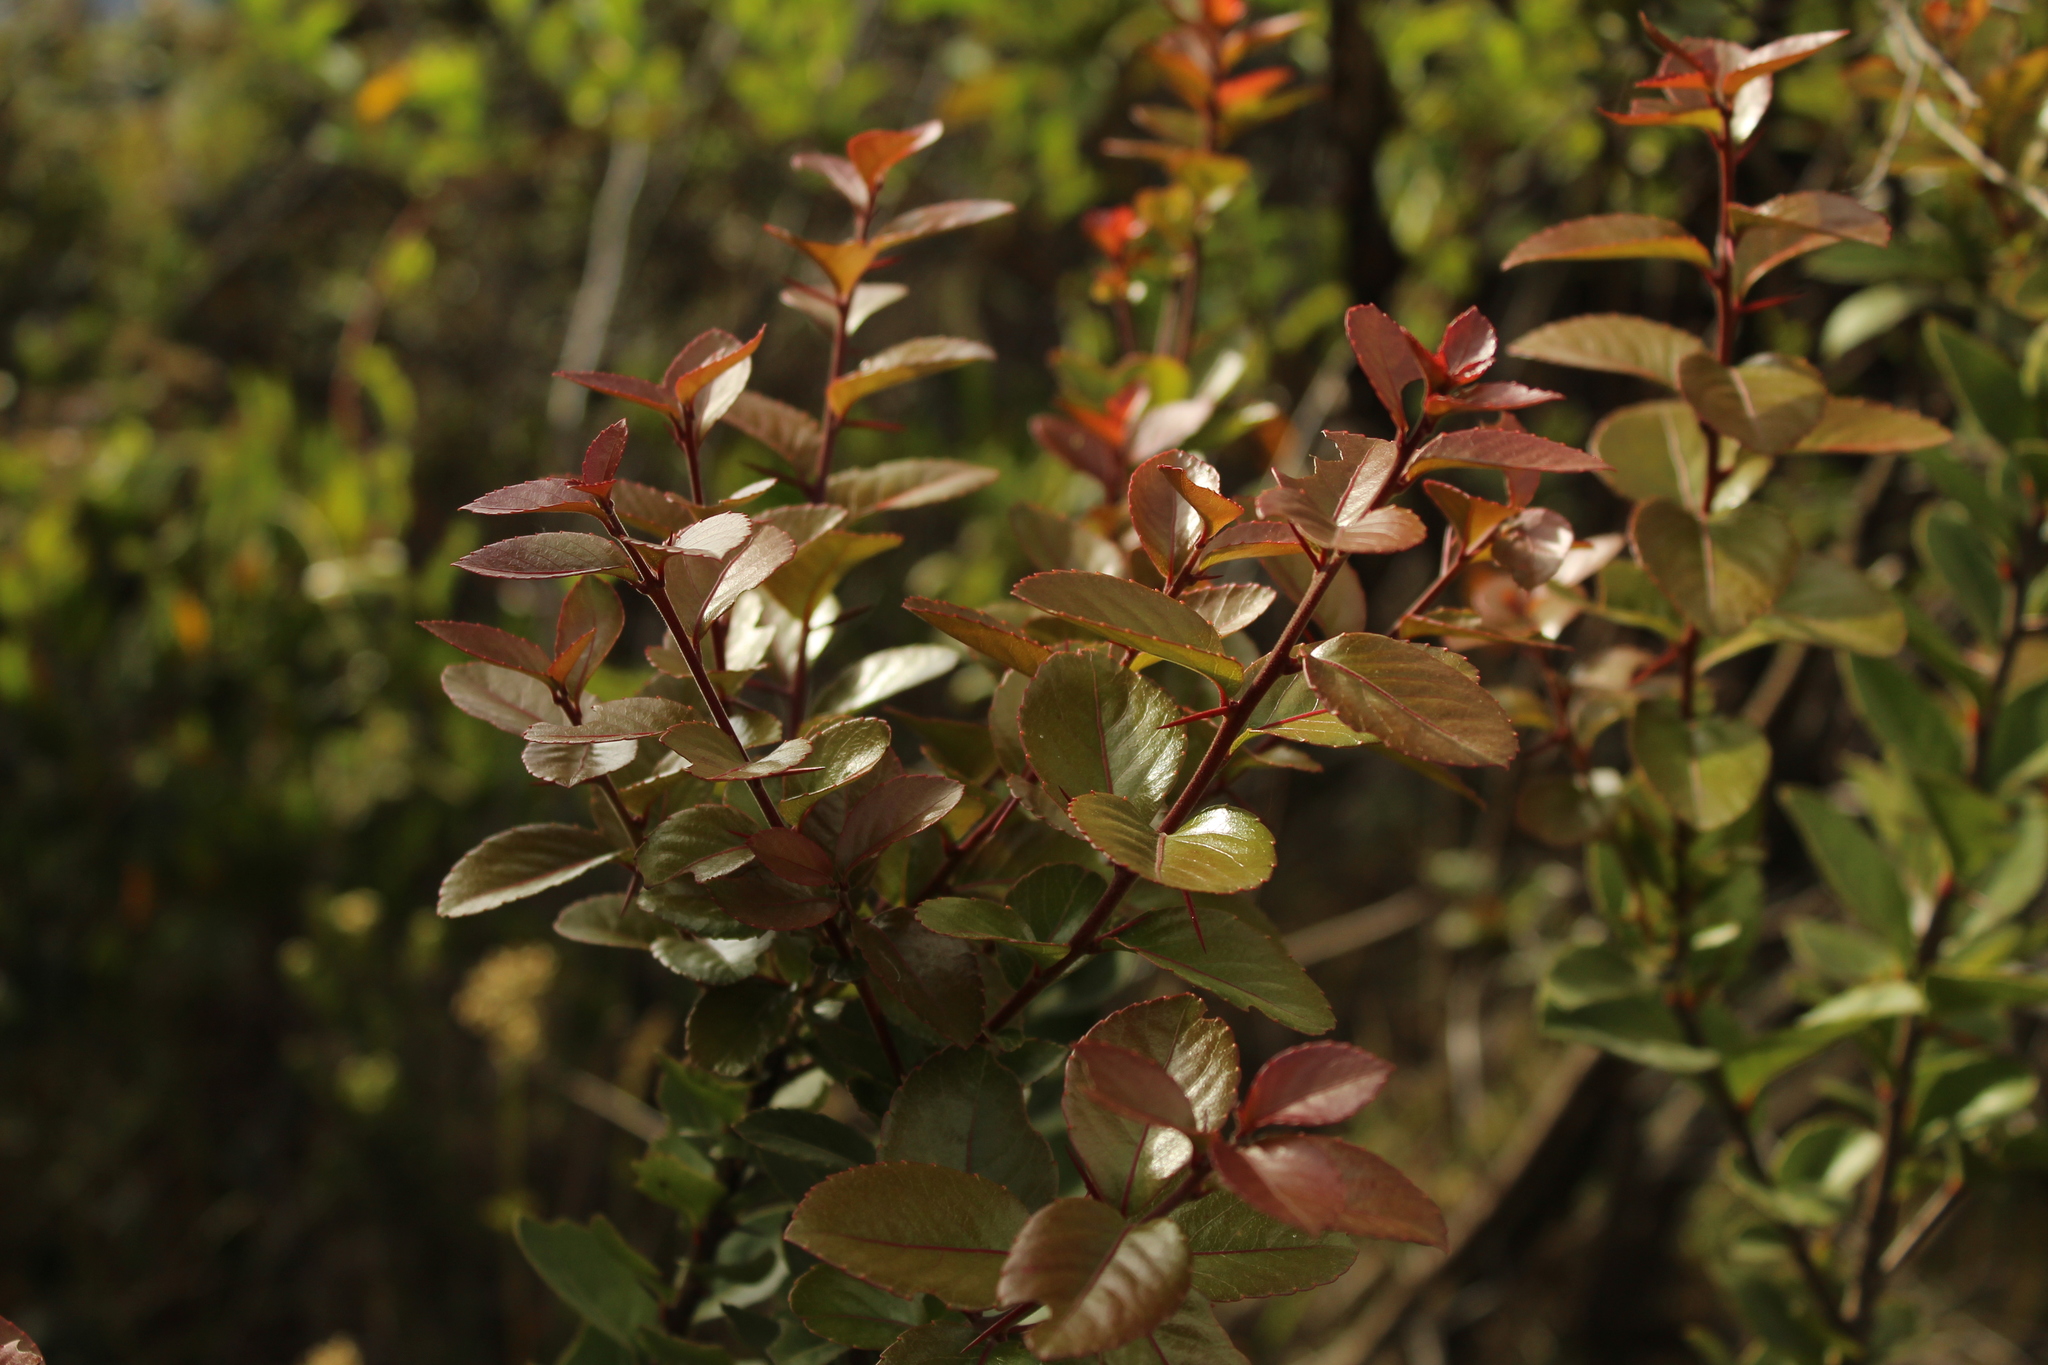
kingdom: Plantae
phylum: Tracheophyta
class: Magnoliopsida
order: Malpighiales
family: Salicaceae
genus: Xylosma
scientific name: Xylosma spiculifera
